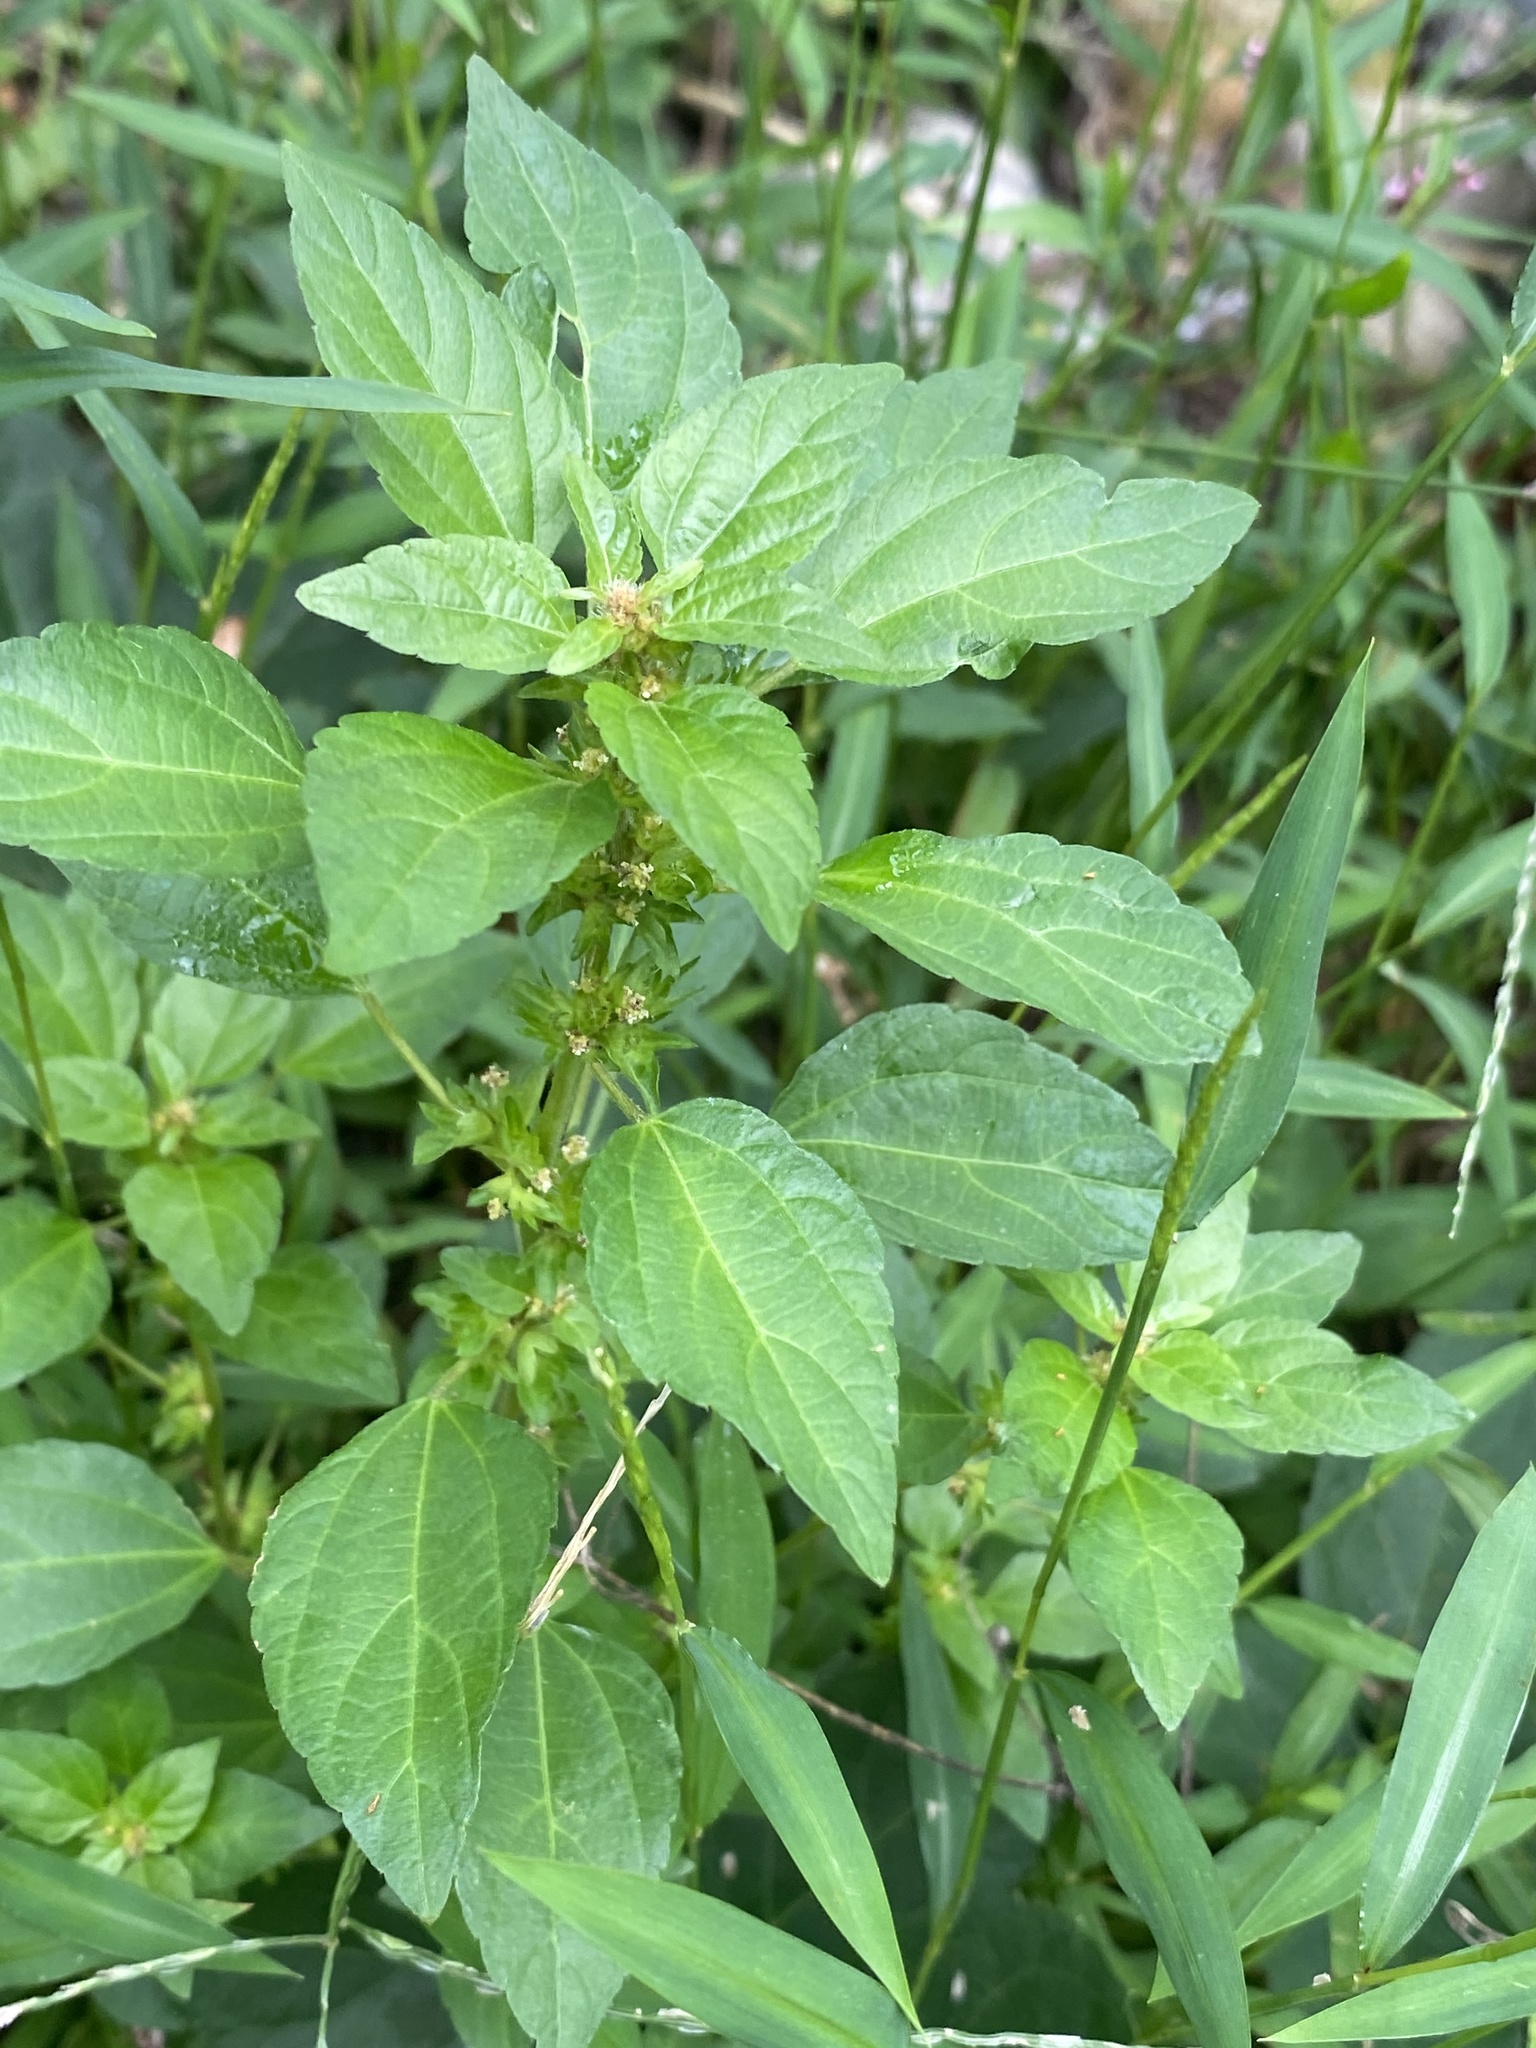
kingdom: Plantae
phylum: Tracheophyta
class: Magnoliopsida
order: Malpighiales
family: Euphorbiaceae
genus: Acalypha
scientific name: Acalypha rhomboidea
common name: Rhombic copperleaf
